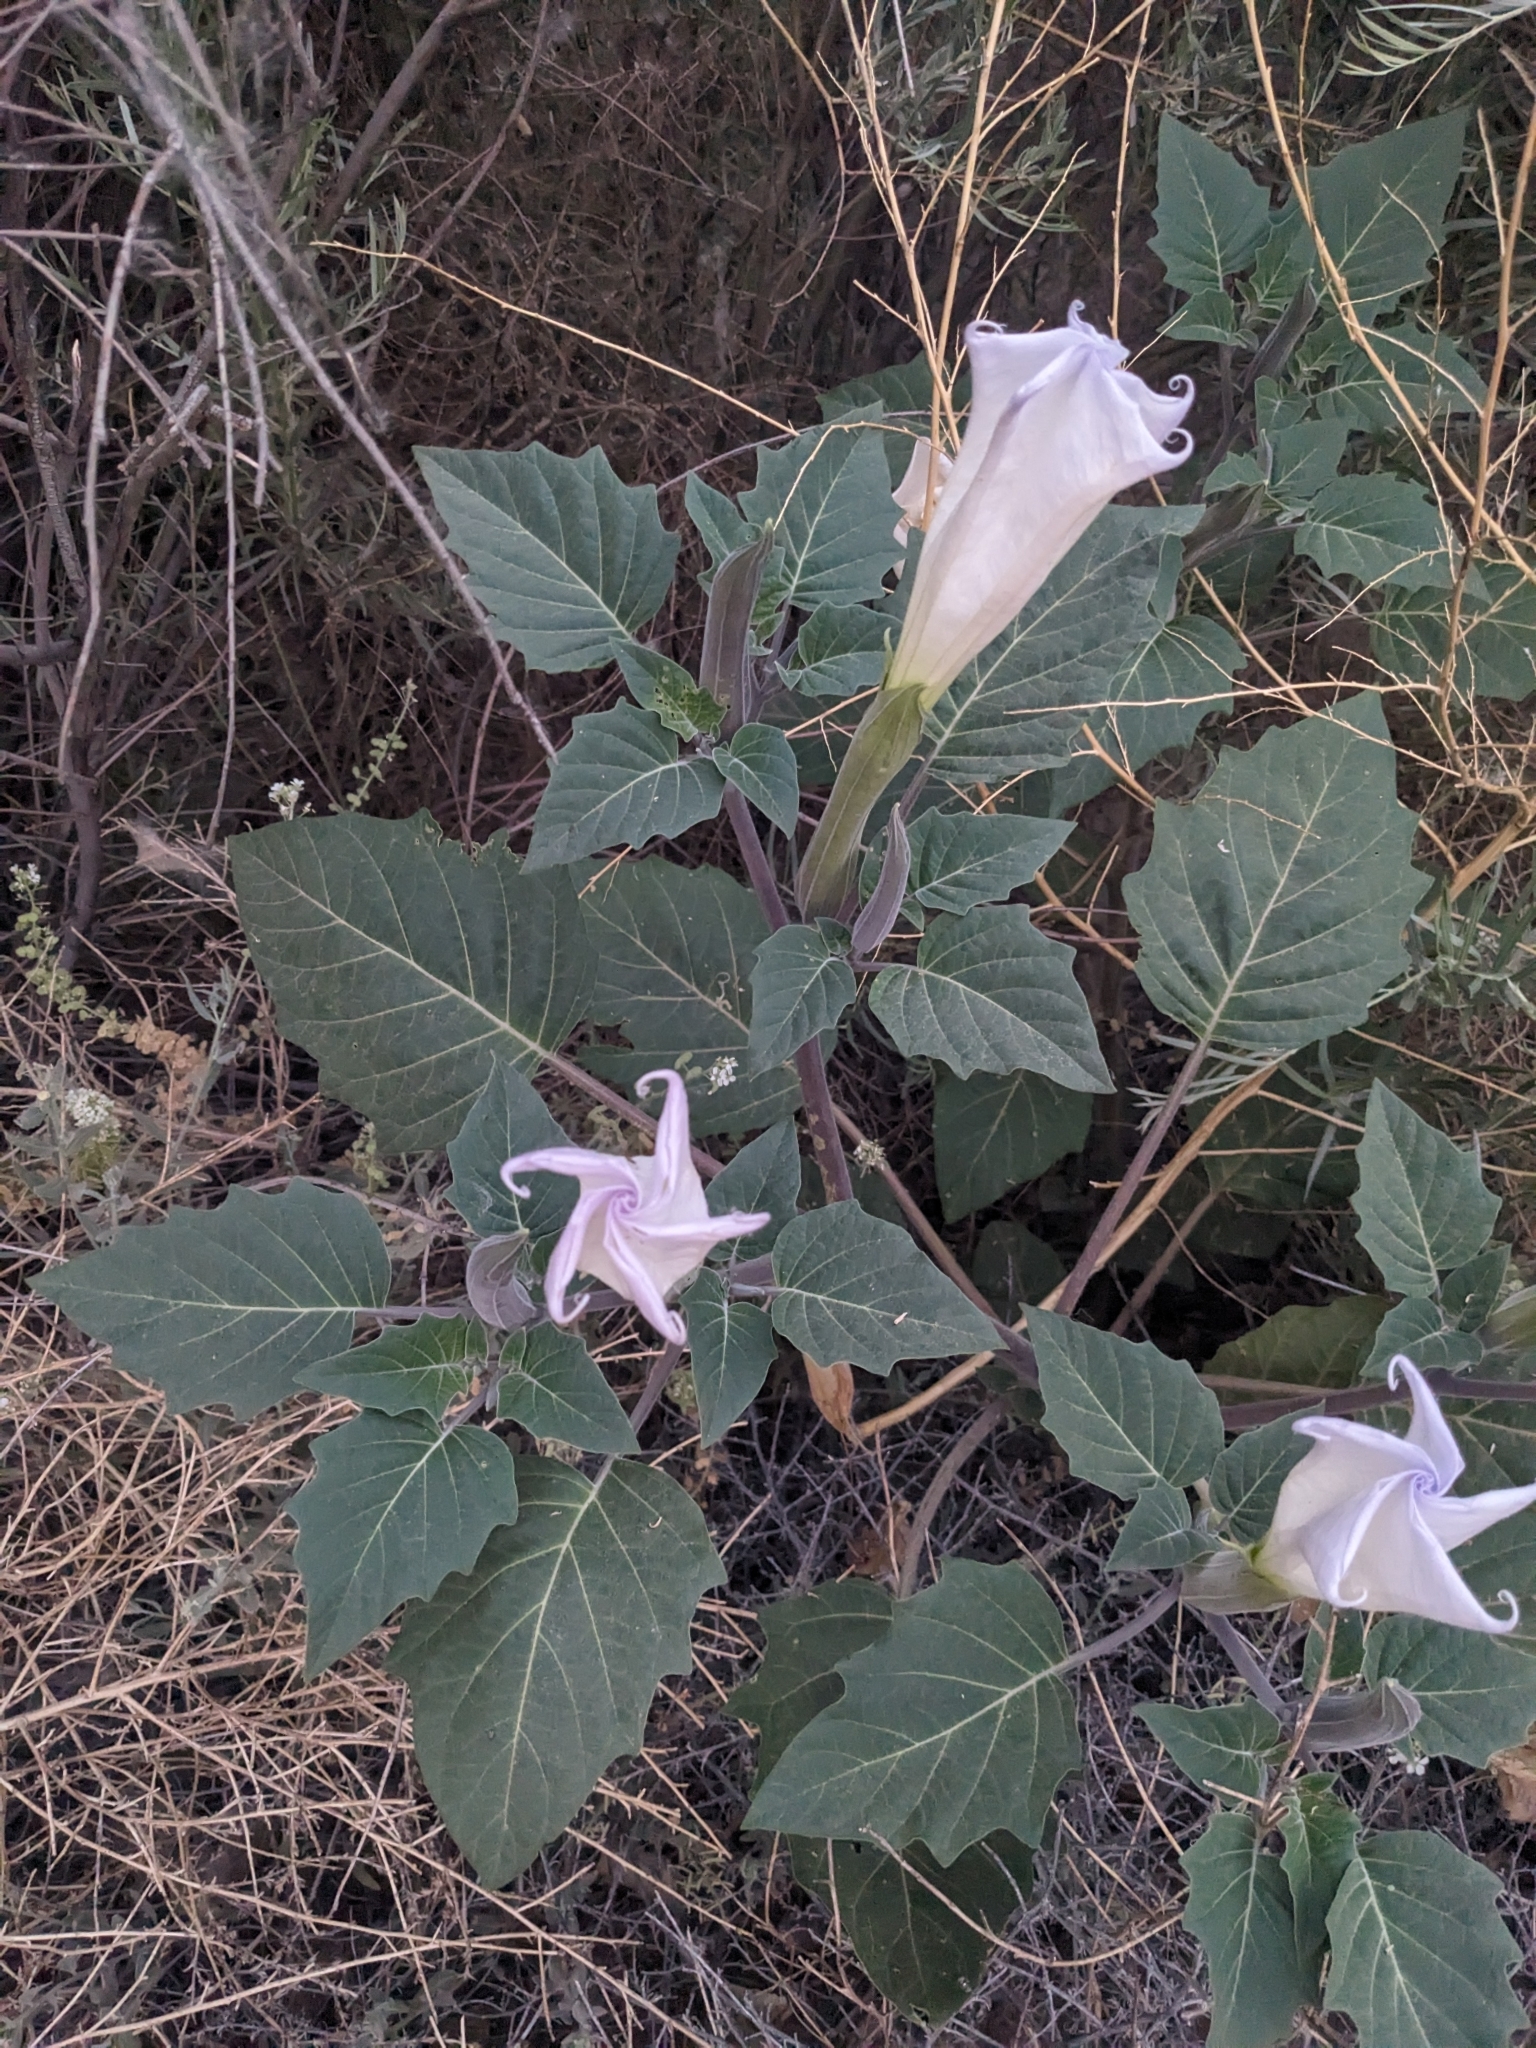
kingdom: Plantae
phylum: Tracheophyta
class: Magnoliopsida
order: Solanales
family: Solanaceae
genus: Datura
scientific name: Datura wrightii
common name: Sacred thorn-apple
